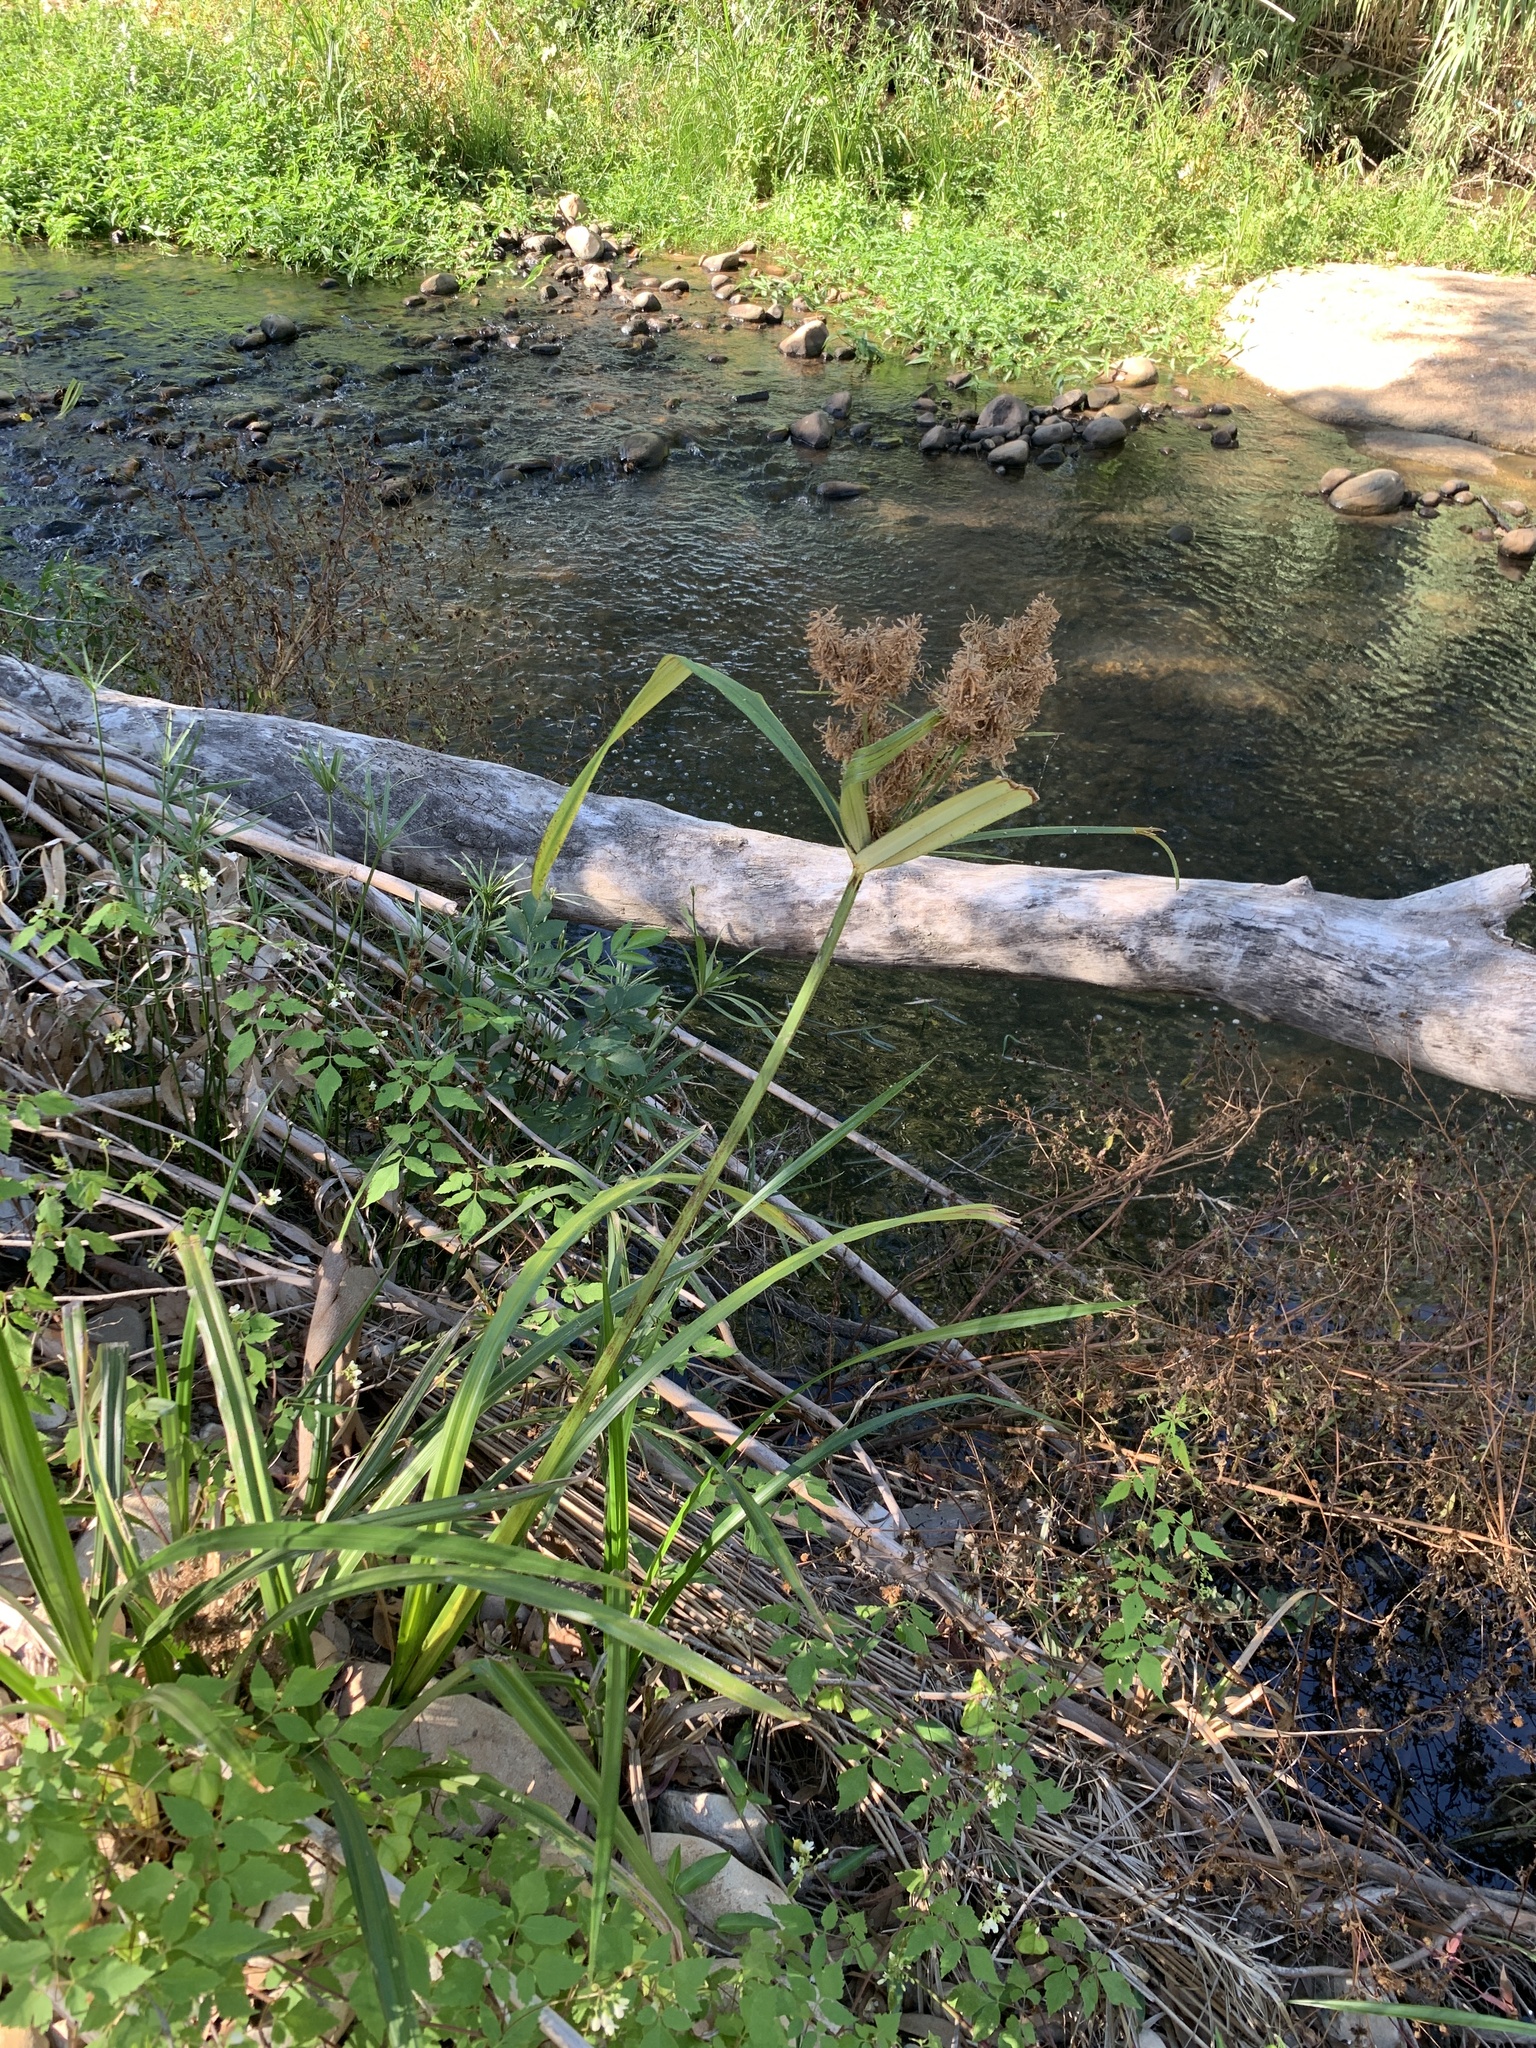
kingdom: Plantae
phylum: Tracheophyta
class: Liliopsida
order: Poales
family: Cyperaceae
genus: Cyperus
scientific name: Cyperus dives
